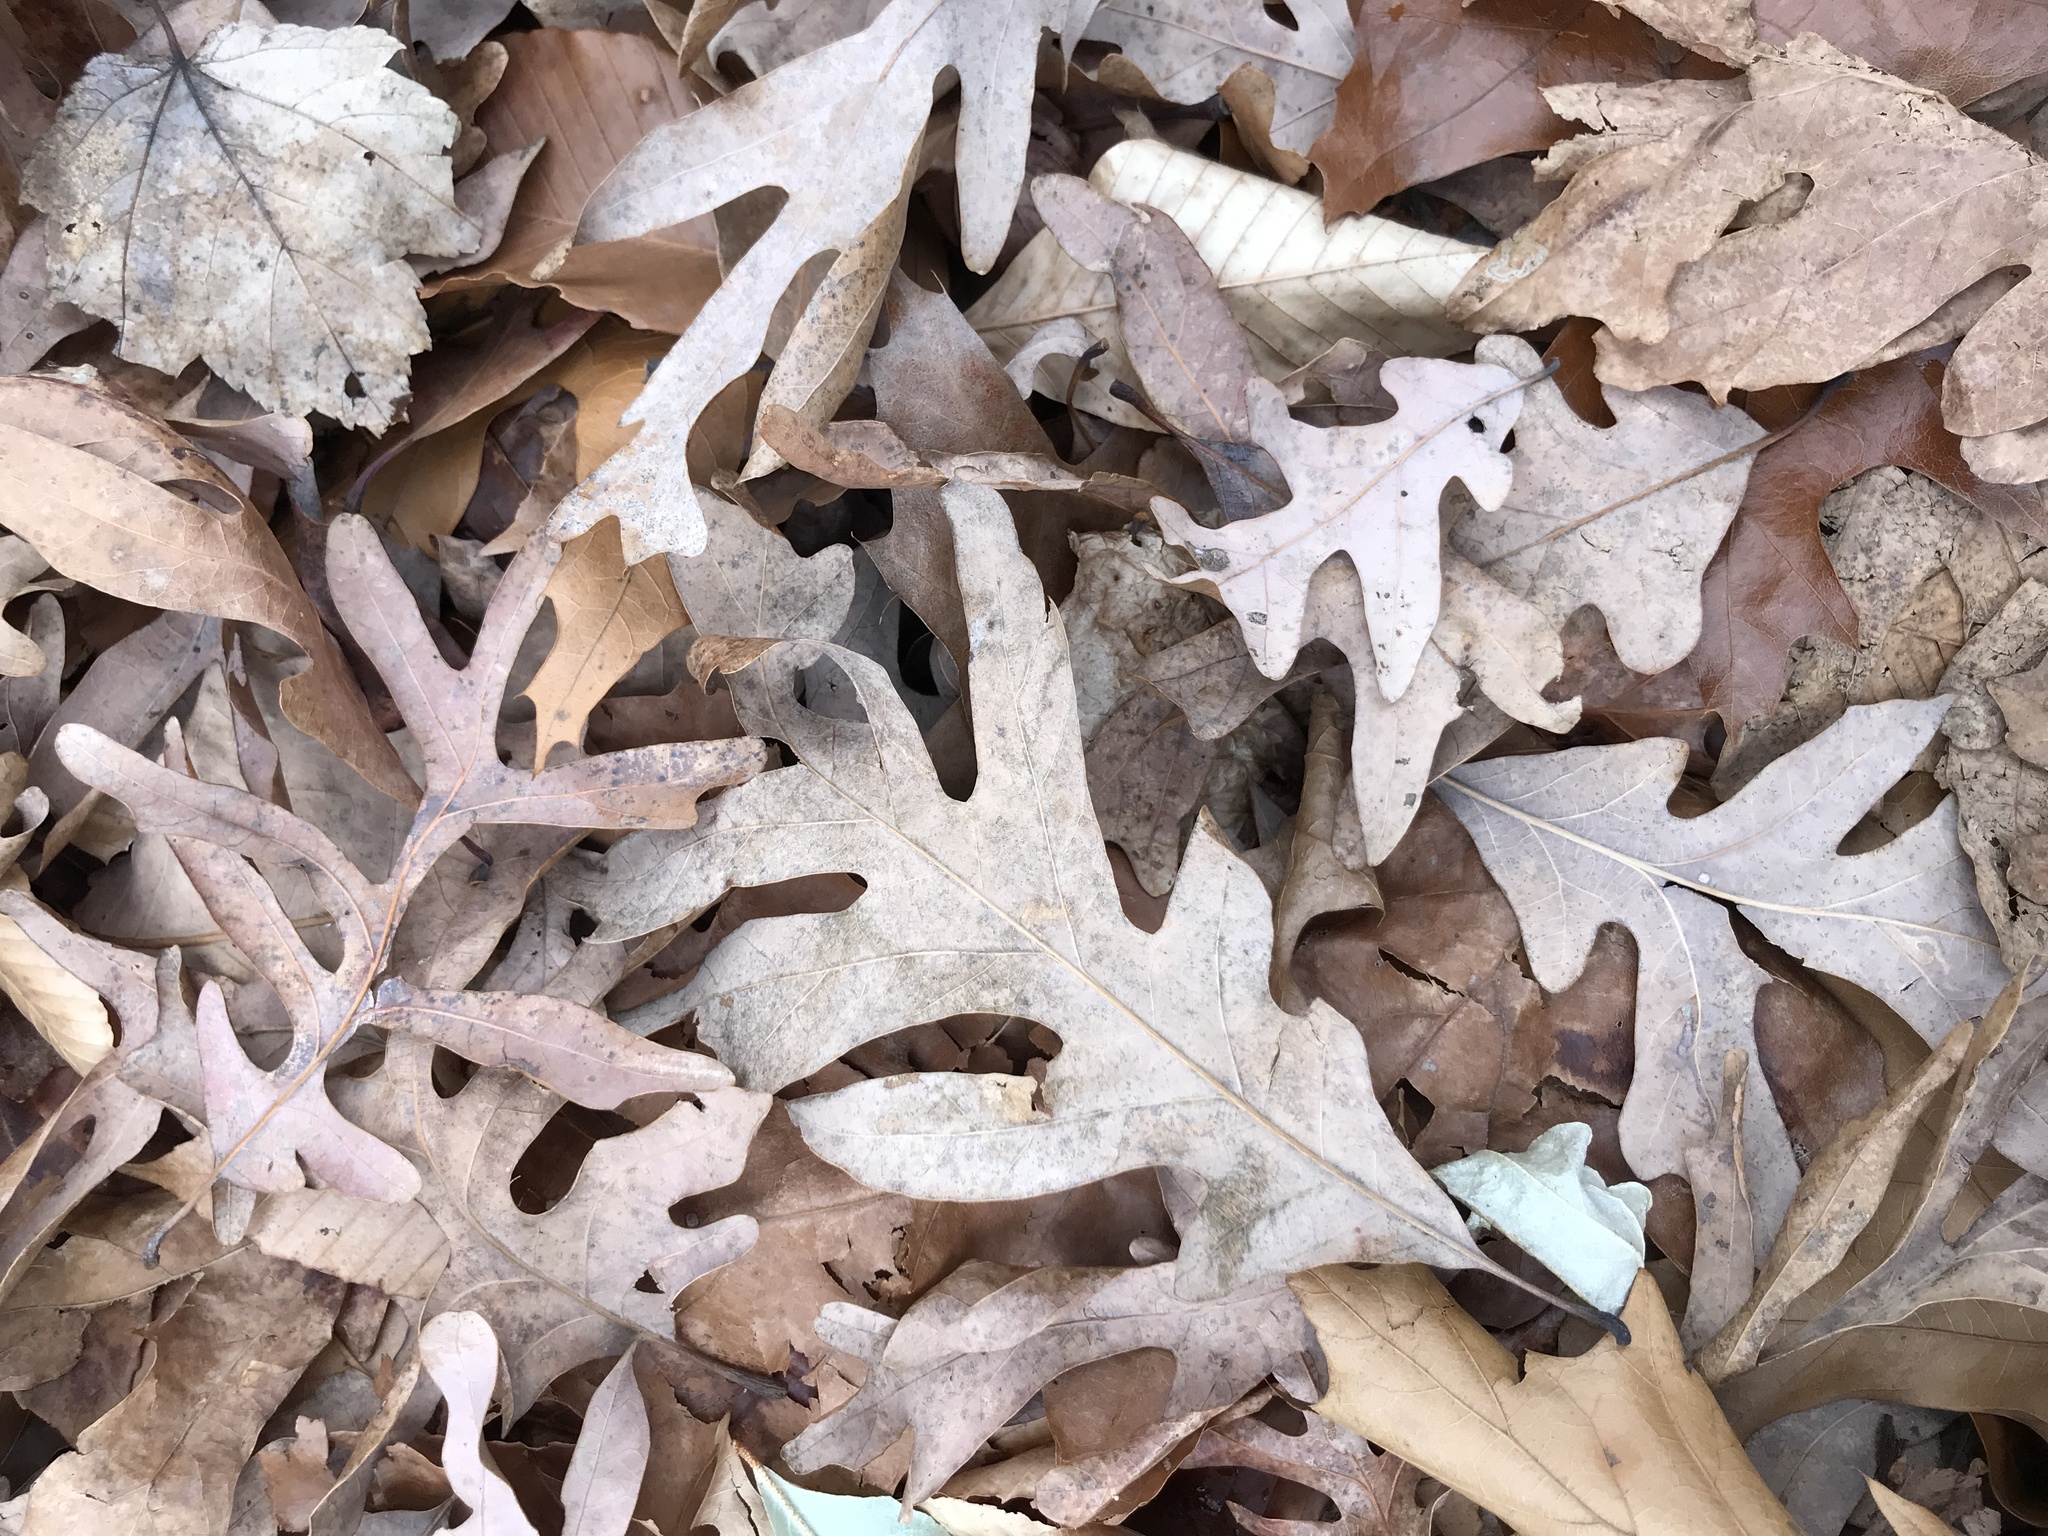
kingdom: Plantae
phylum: Tracheophyta
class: Magnoliopsida
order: Fagales
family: Fagaceae
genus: Quercus
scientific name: Quercus alba
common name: White oak
